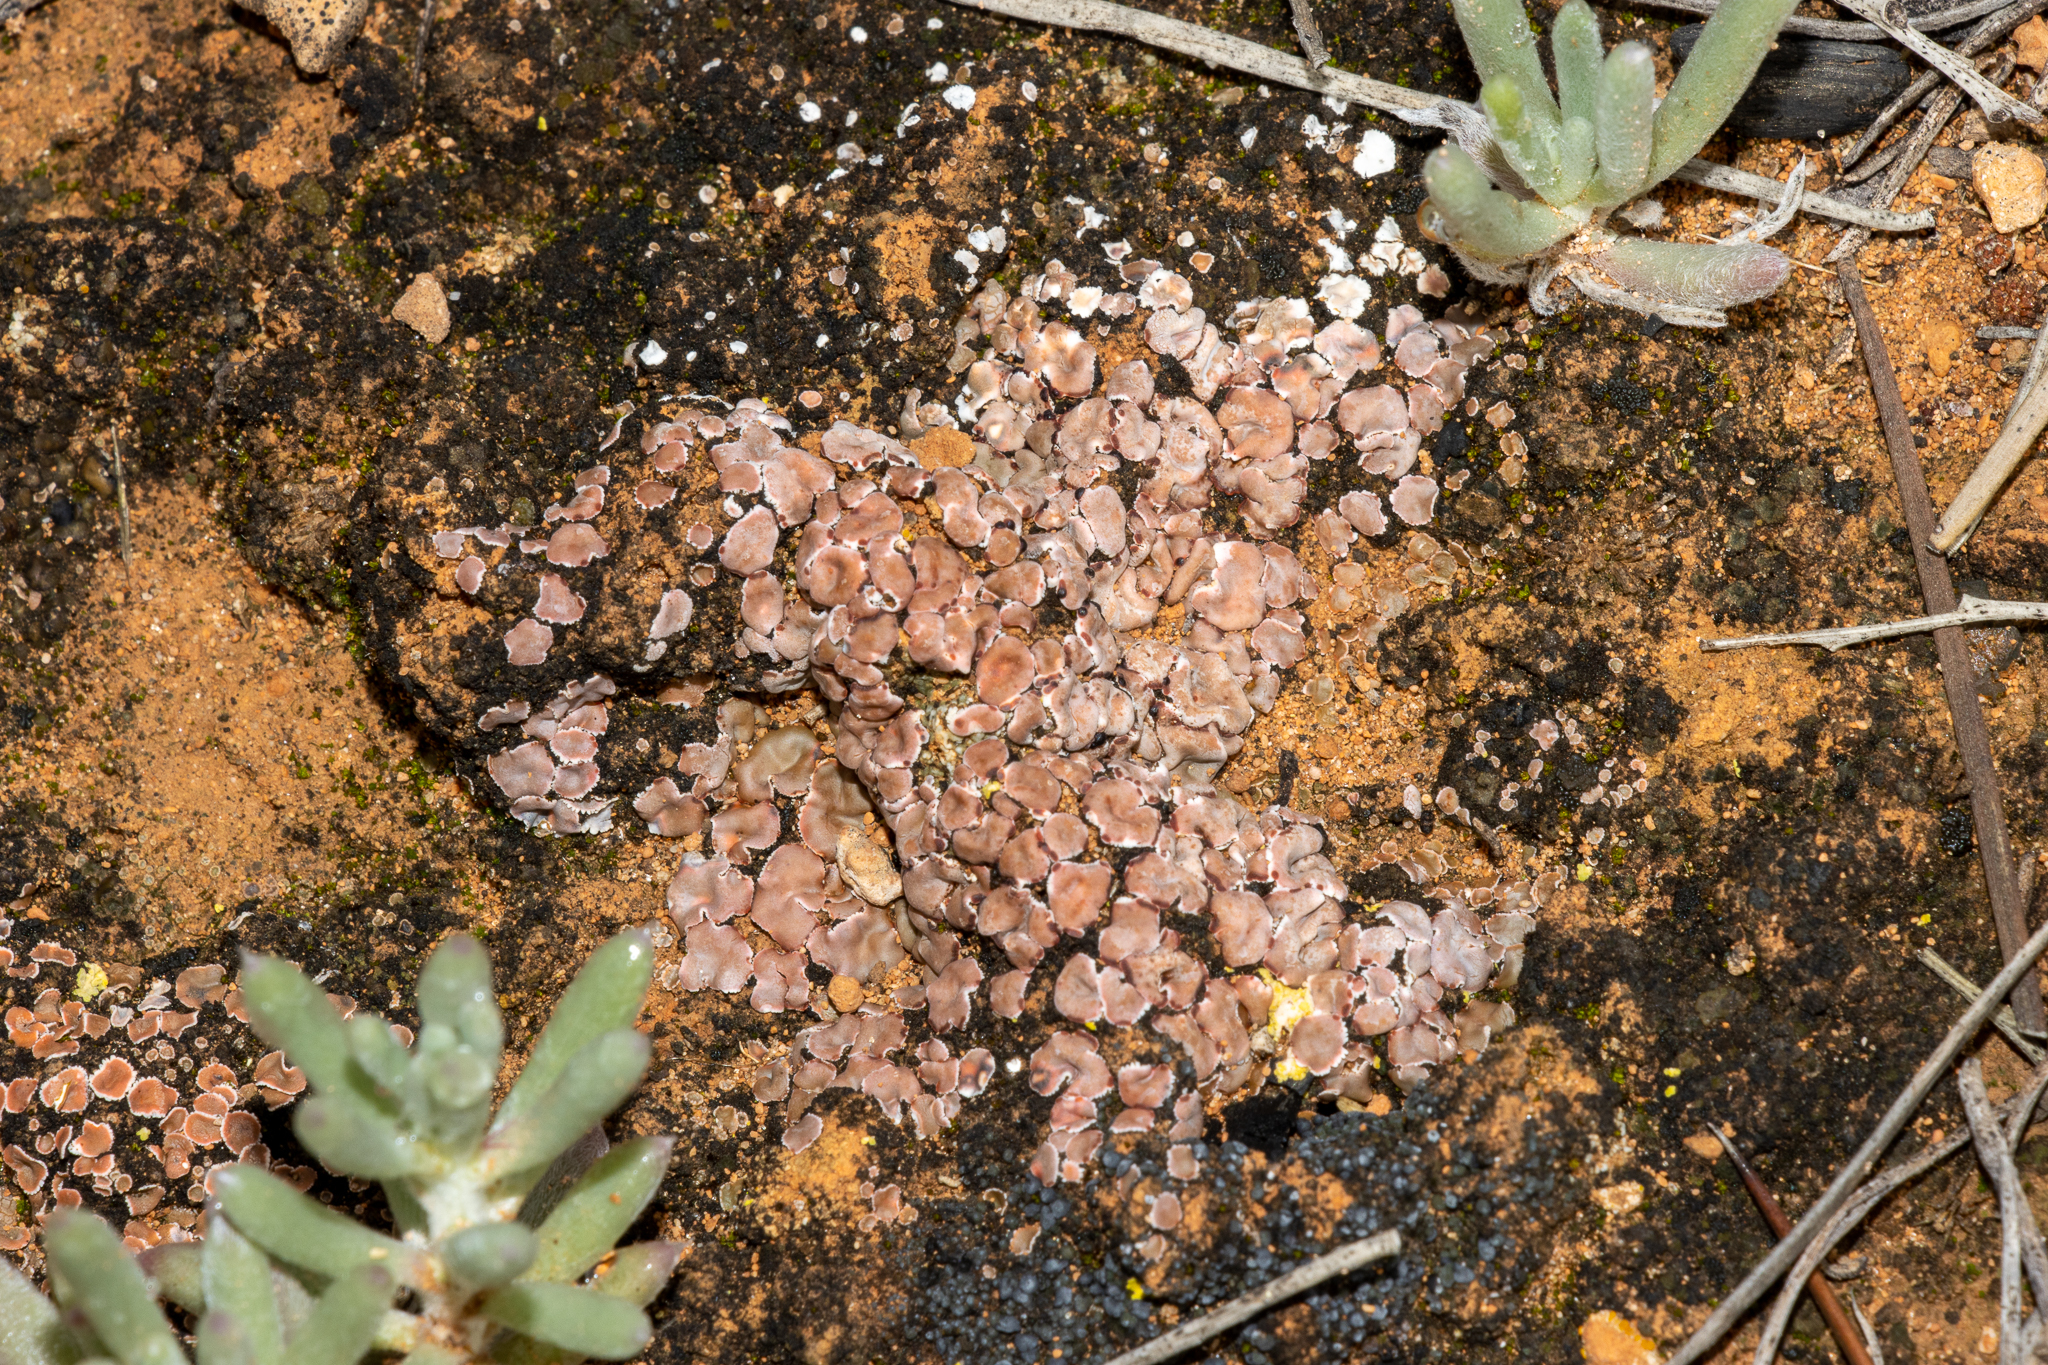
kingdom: Fungi
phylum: Ascomycota
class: Lecanoromycetes
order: Lecanorales
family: Psoraceae
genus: Psora
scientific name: Psora decipiens
